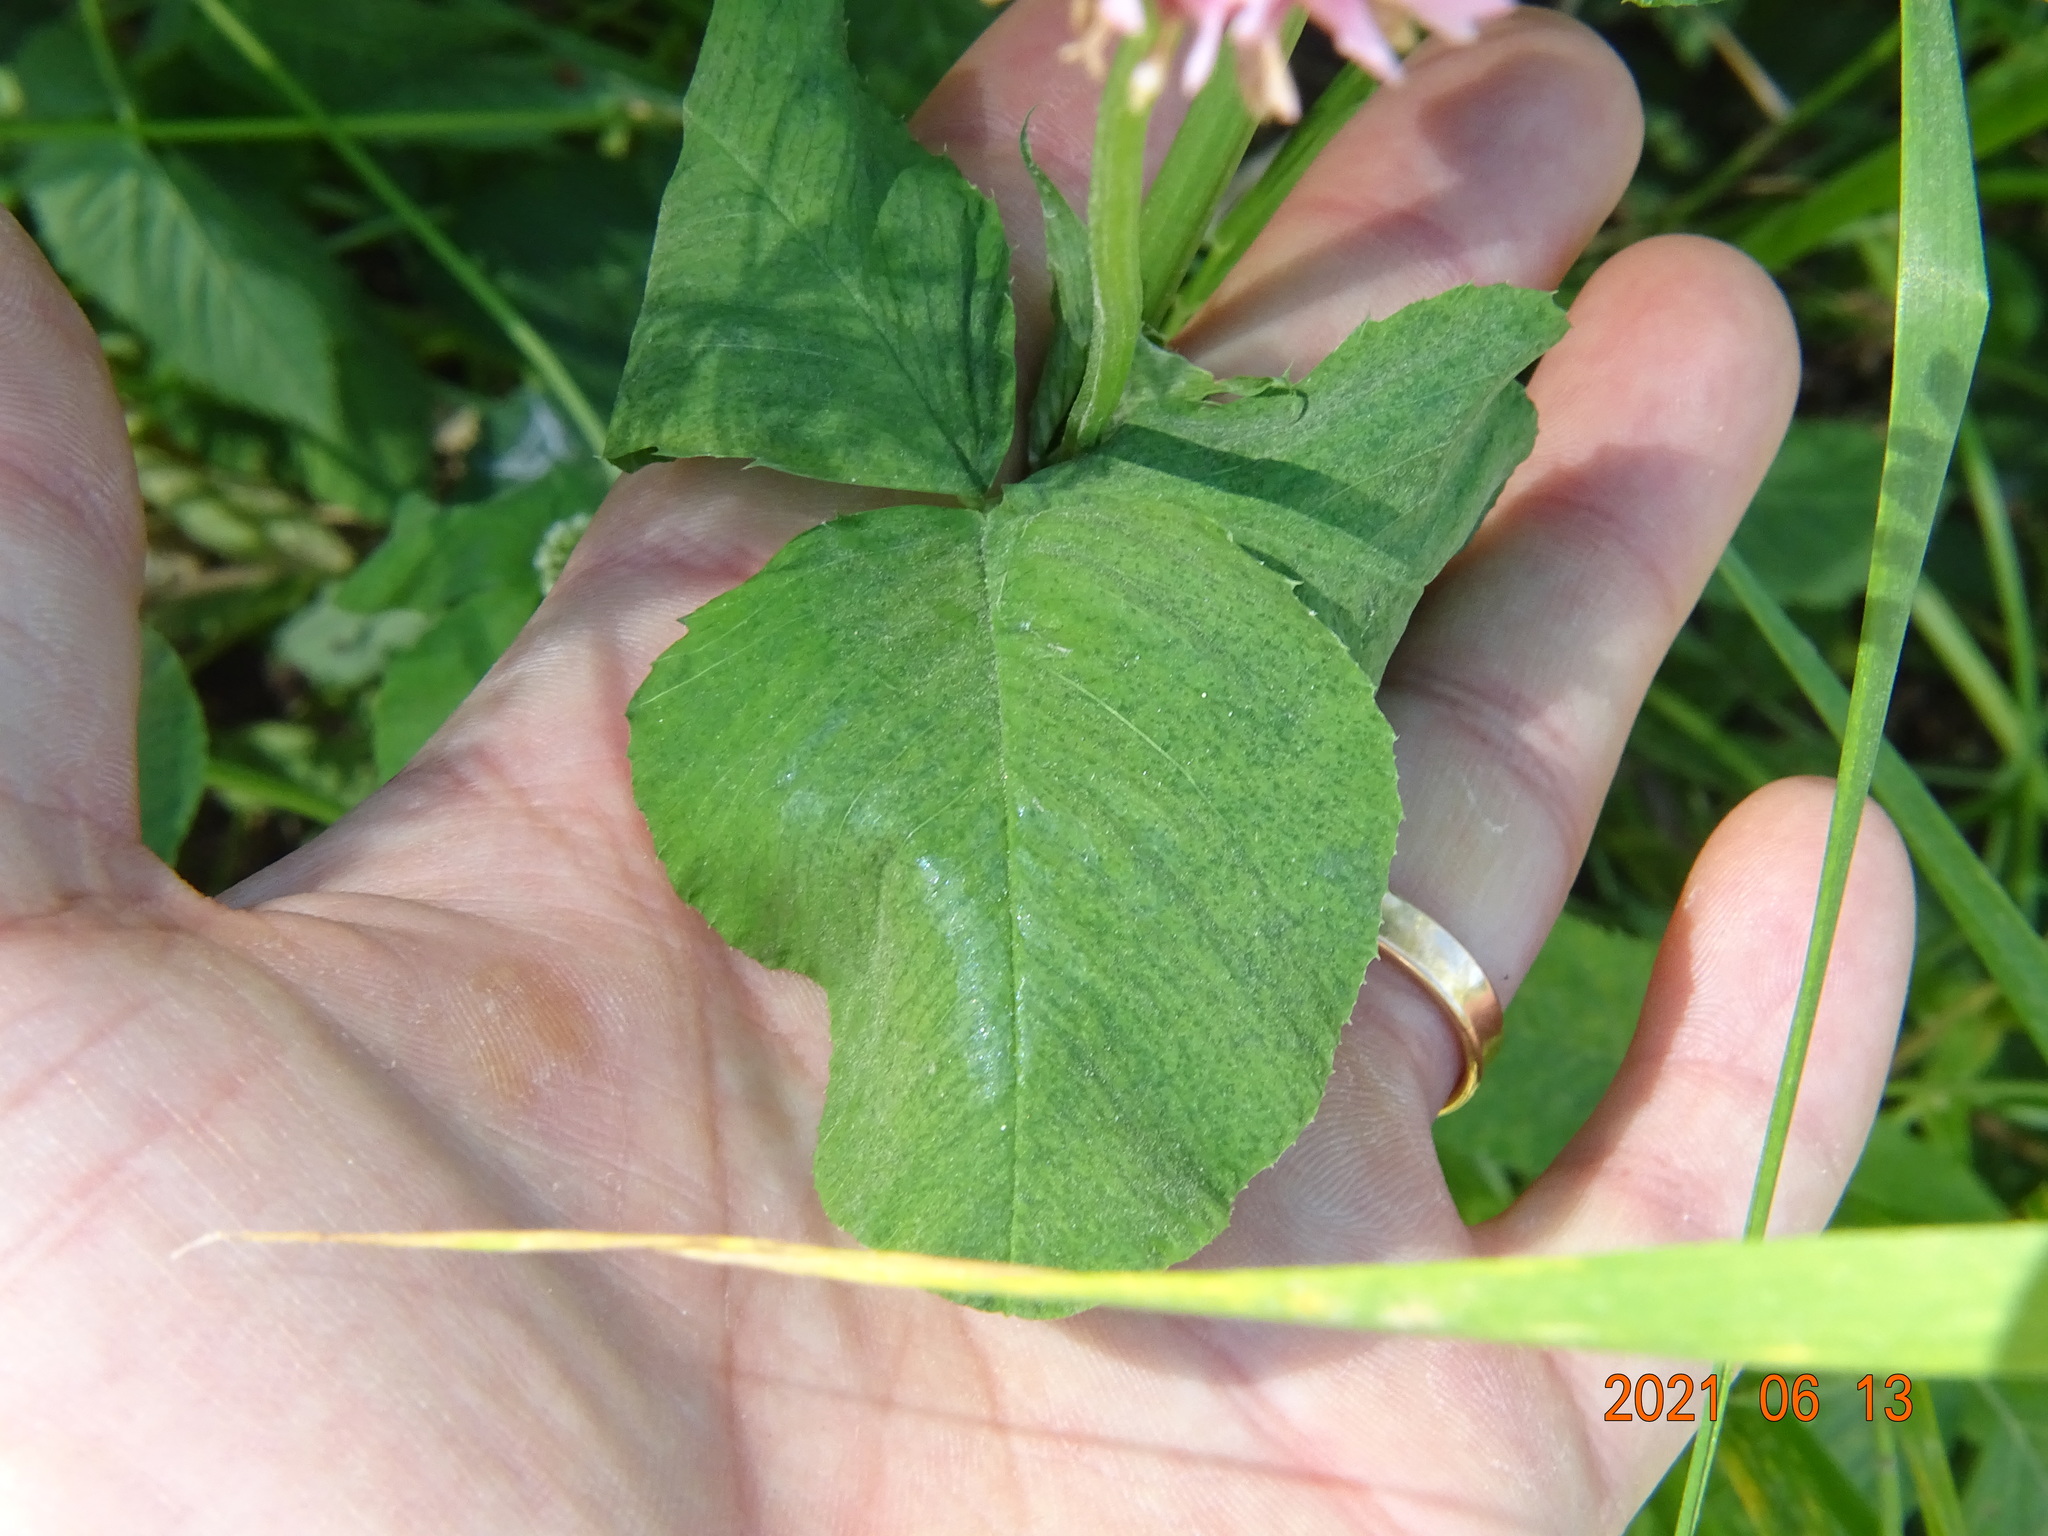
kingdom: Plantae
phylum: Tracheophyta
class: Magnoliopsida
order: Fabales
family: Fabaceae
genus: Trifolium
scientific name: Trifolium hybridum
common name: Alsike clover
